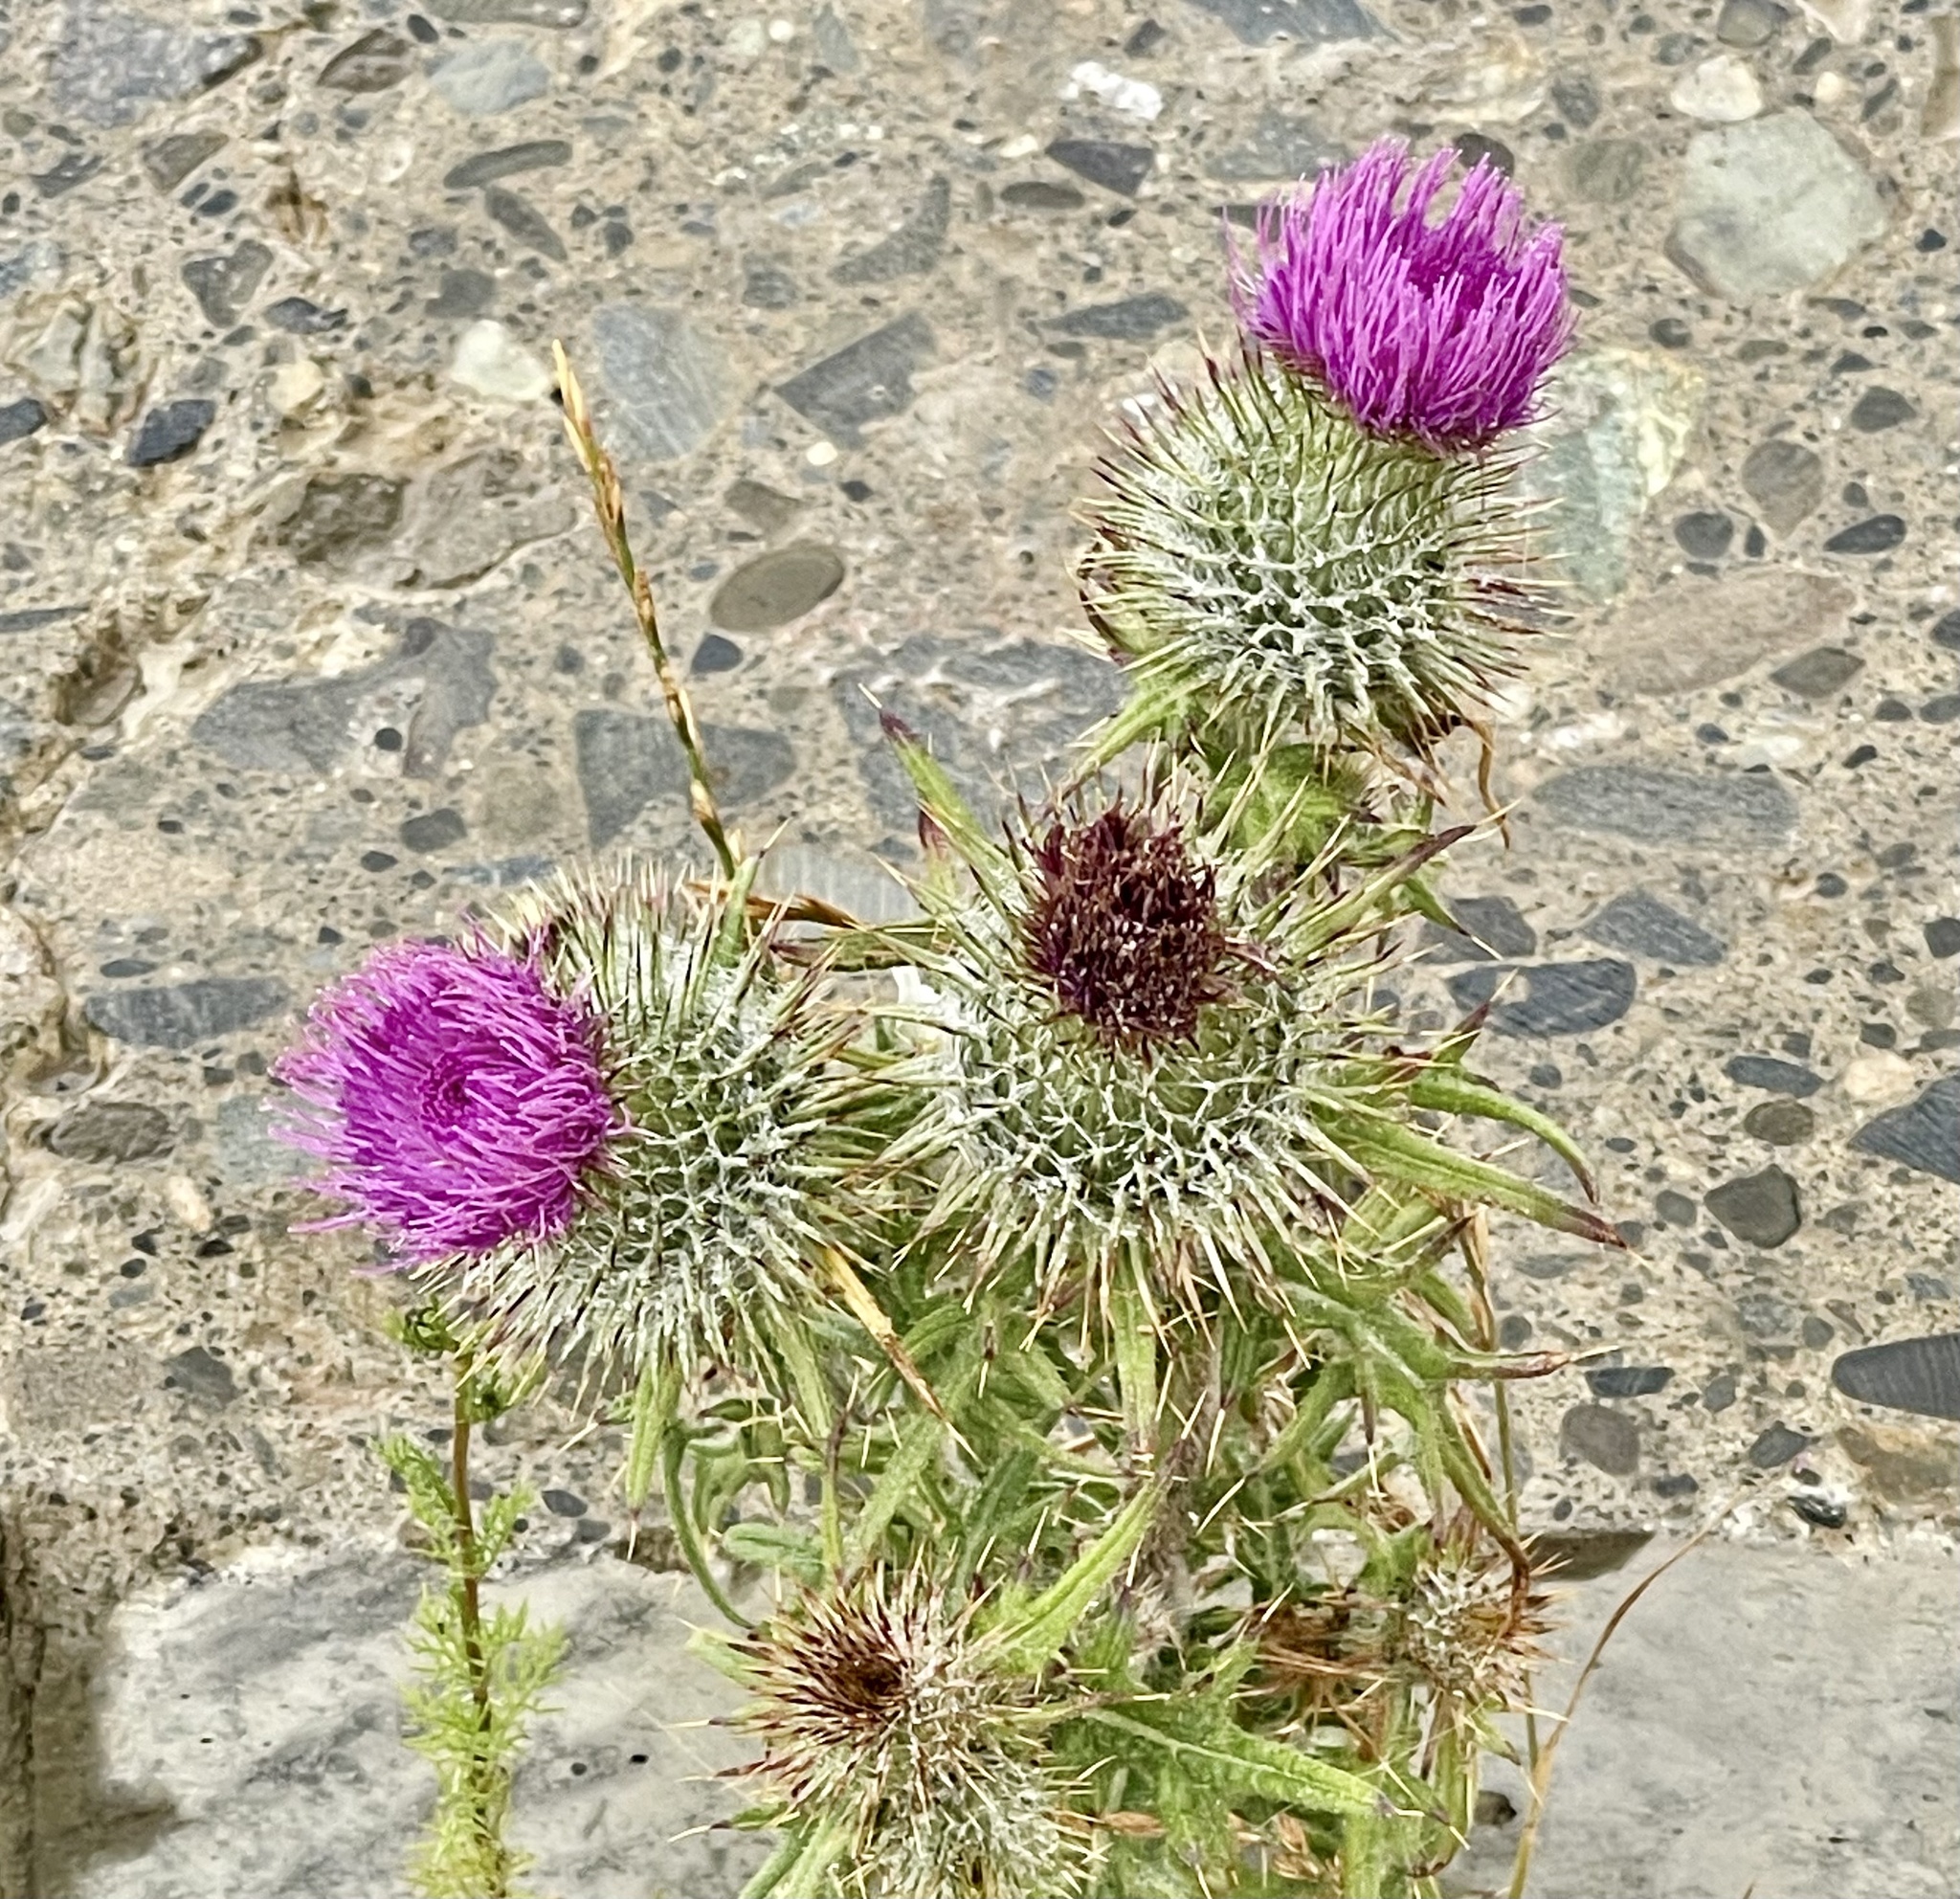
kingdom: Plantae
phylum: Tracheophyta
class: Magnoliopsida
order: Asterales
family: Asteraceae
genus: Cirsium
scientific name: Cirsium vulgare
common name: Bull thistle
